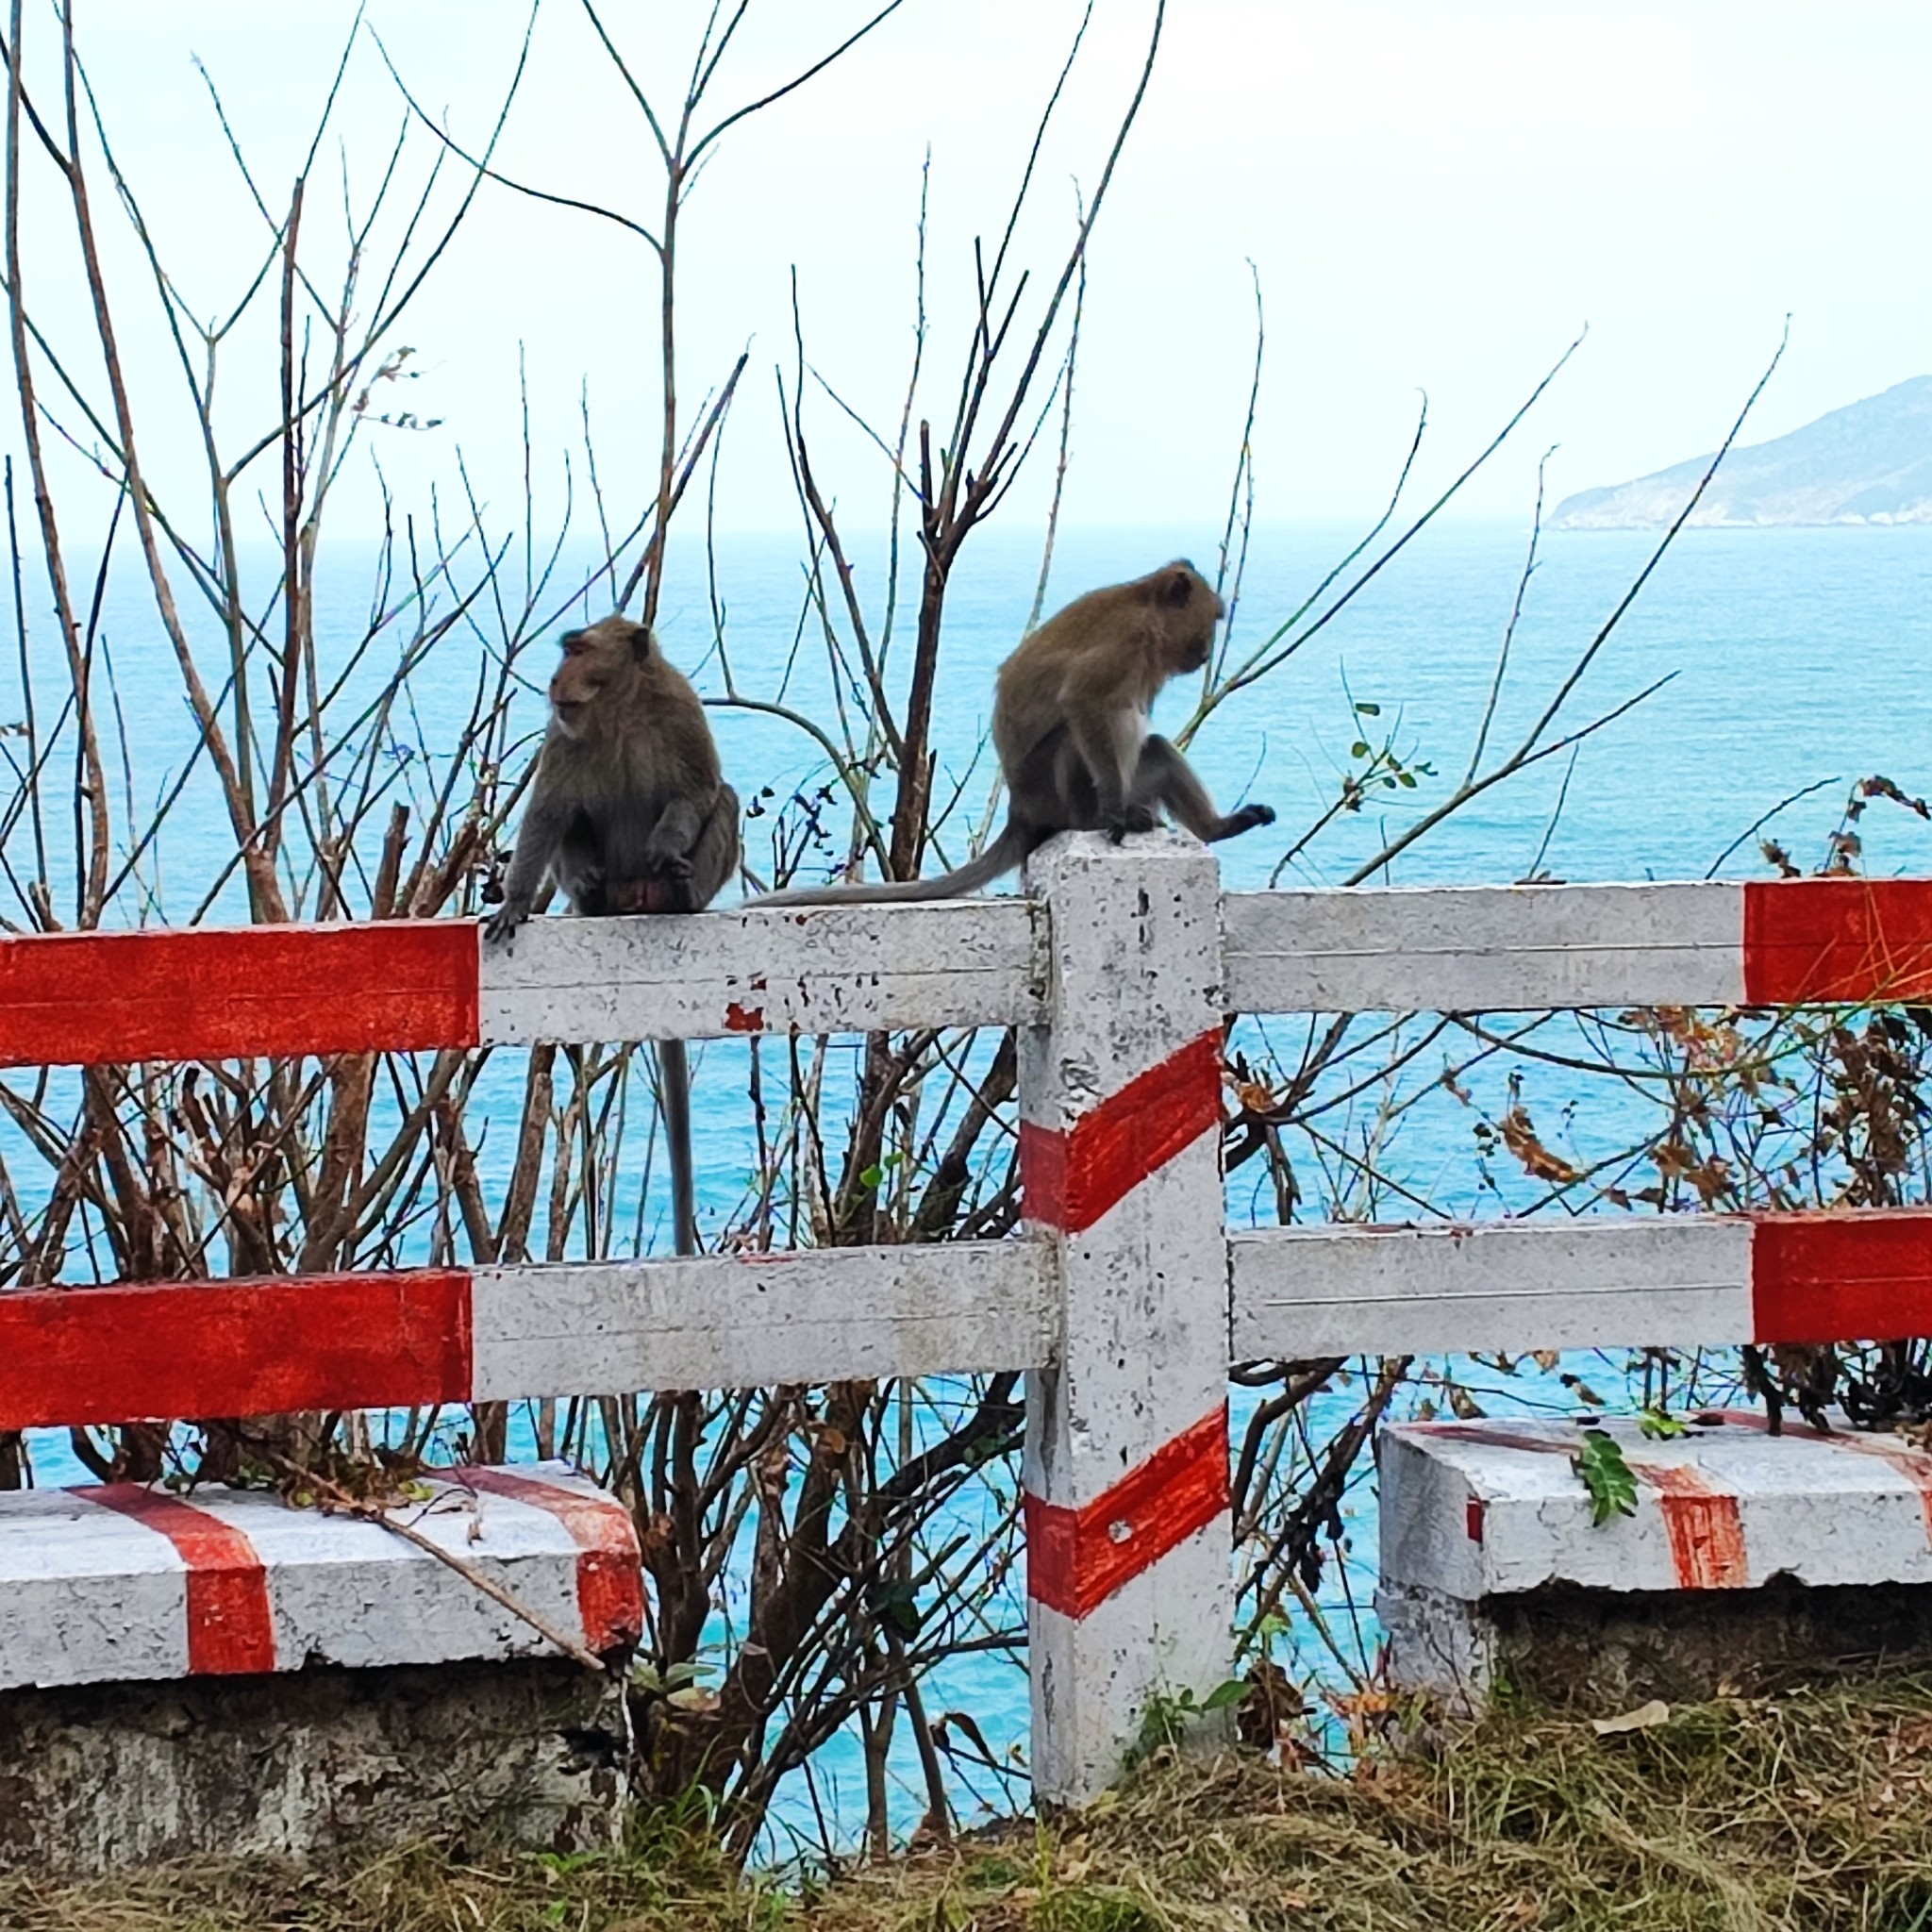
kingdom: Animalia
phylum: Chordata
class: Mammalia
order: Primates
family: Cercopithecidae
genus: Macaca
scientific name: Macaca fascicularis
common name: Crab-eating macaque
